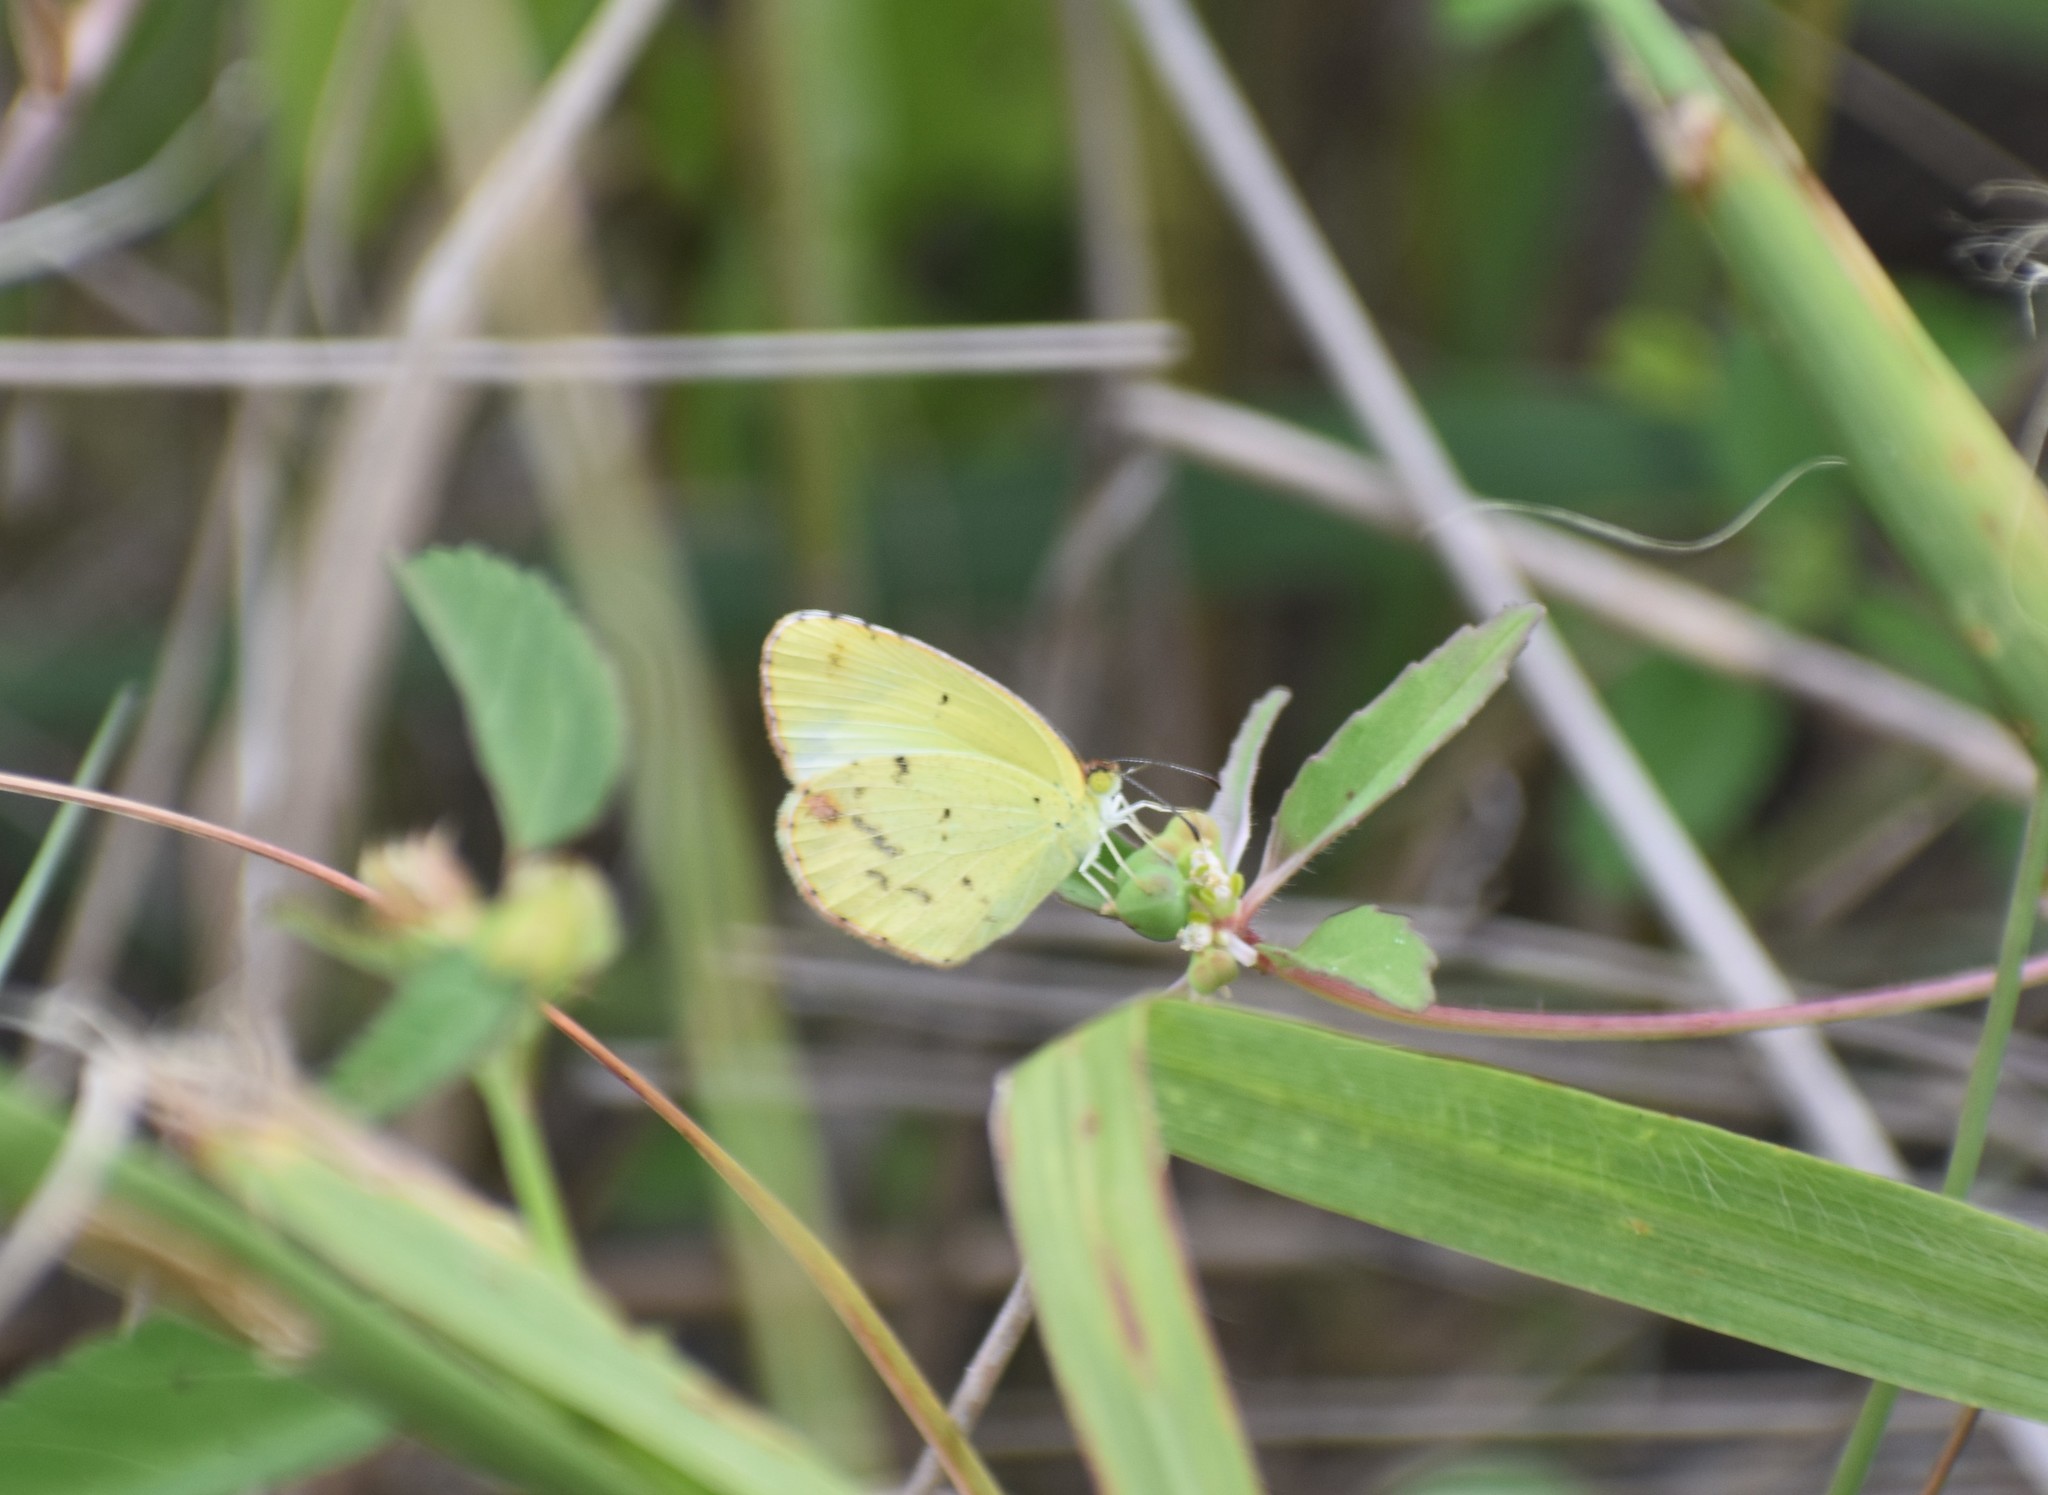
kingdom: Animalia
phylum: Arthropoda
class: Insecta
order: Lepidoptera
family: Pieridae
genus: Pyrisitia
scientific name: Pyrisitia lisa
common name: Little yellow
